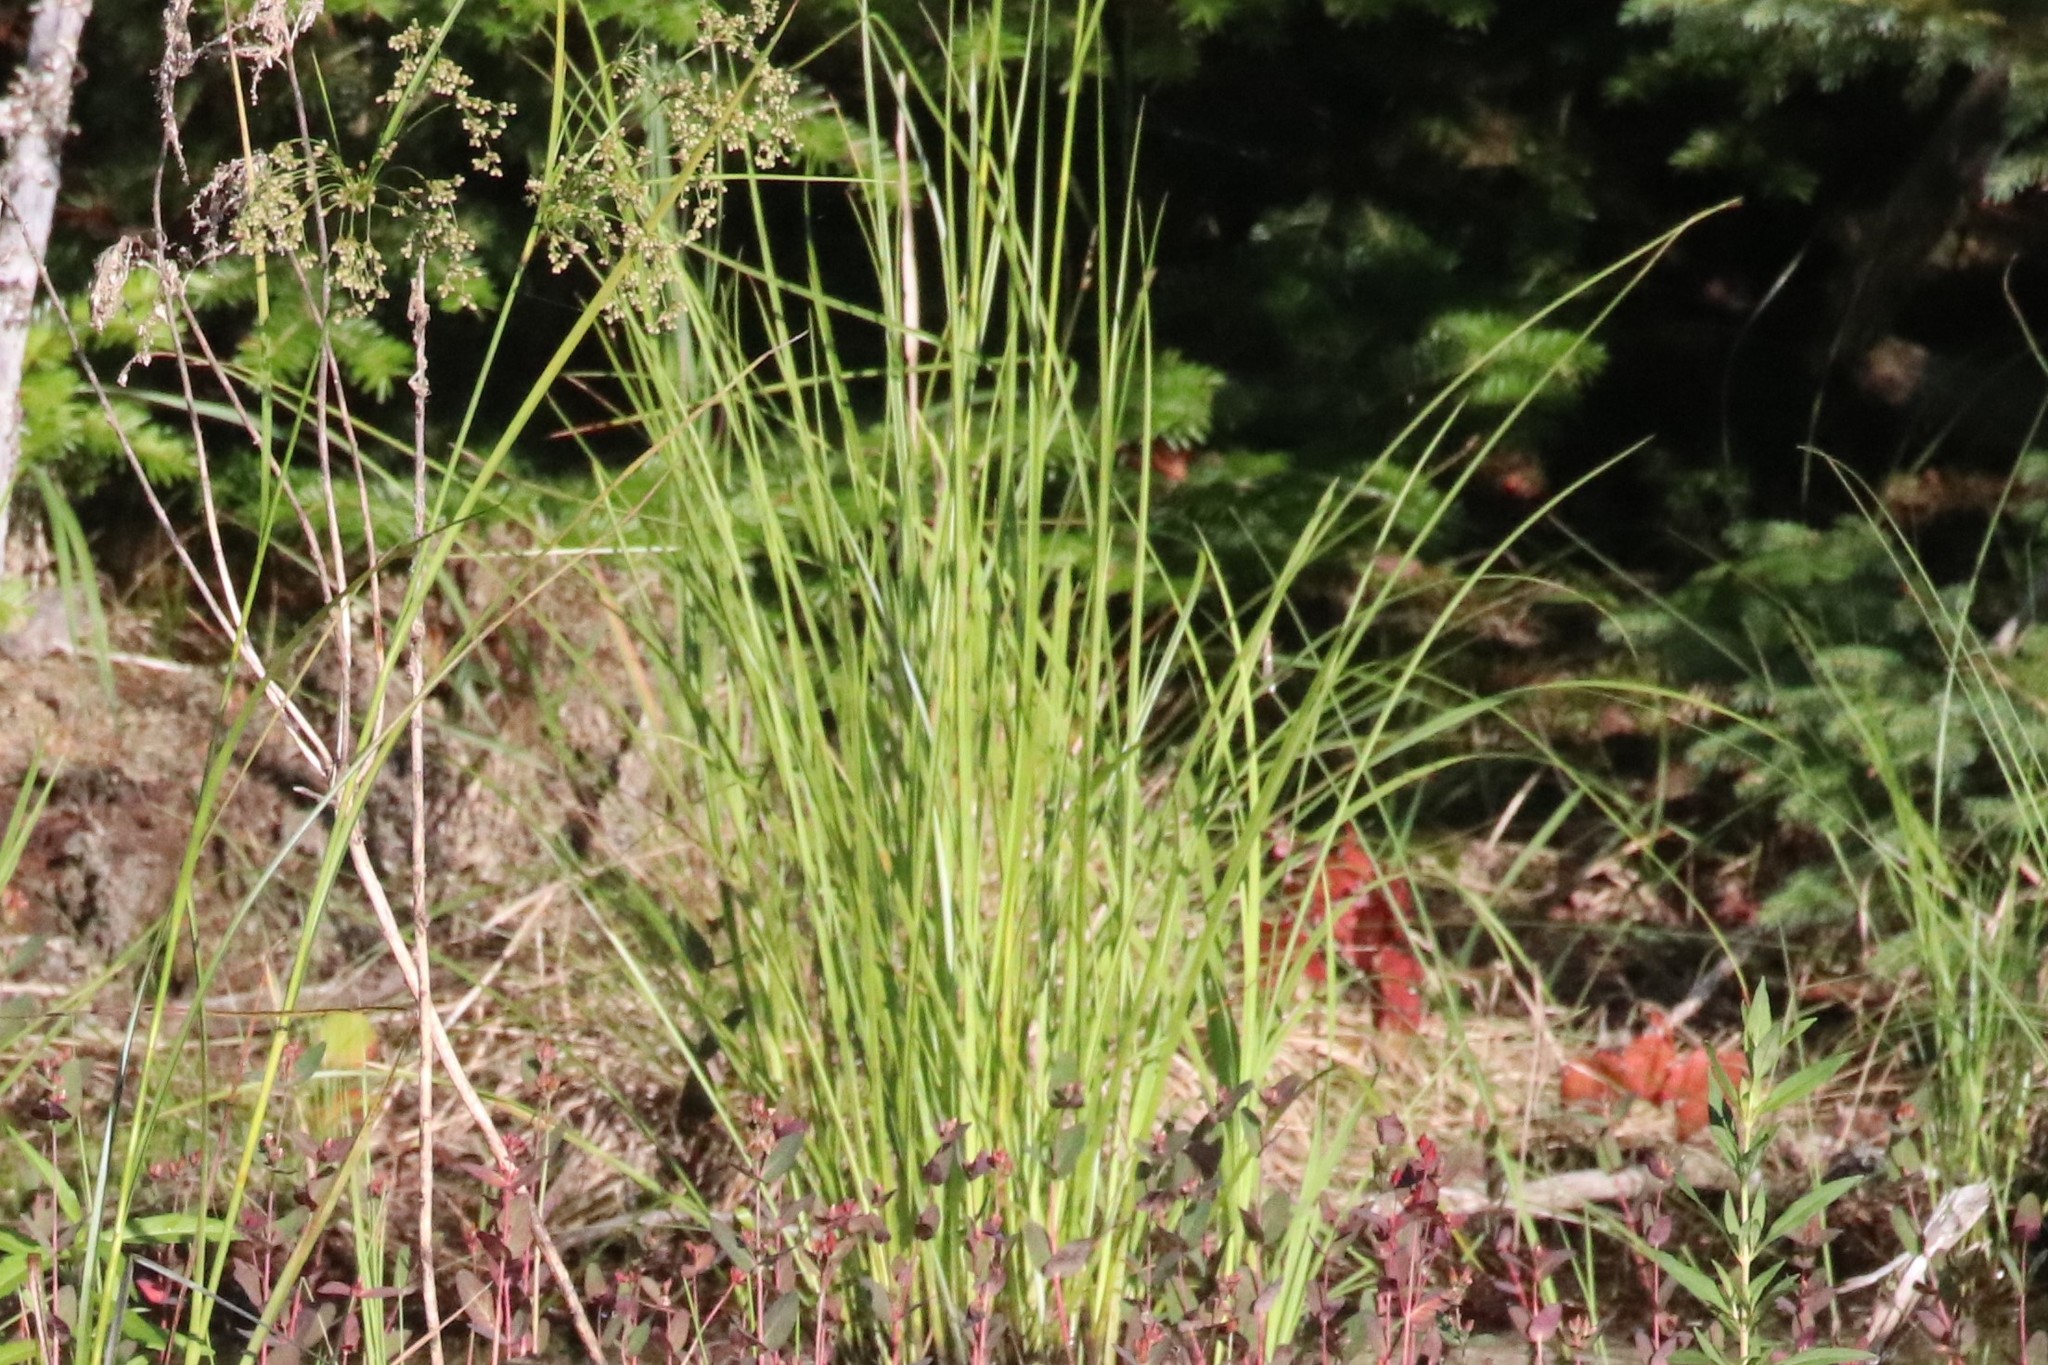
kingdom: Plantae
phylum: Tracheophyta
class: Liliopsida
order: Poales
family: Juncaceae
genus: Juncus
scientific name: Juncus effusus
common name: Soft rush
